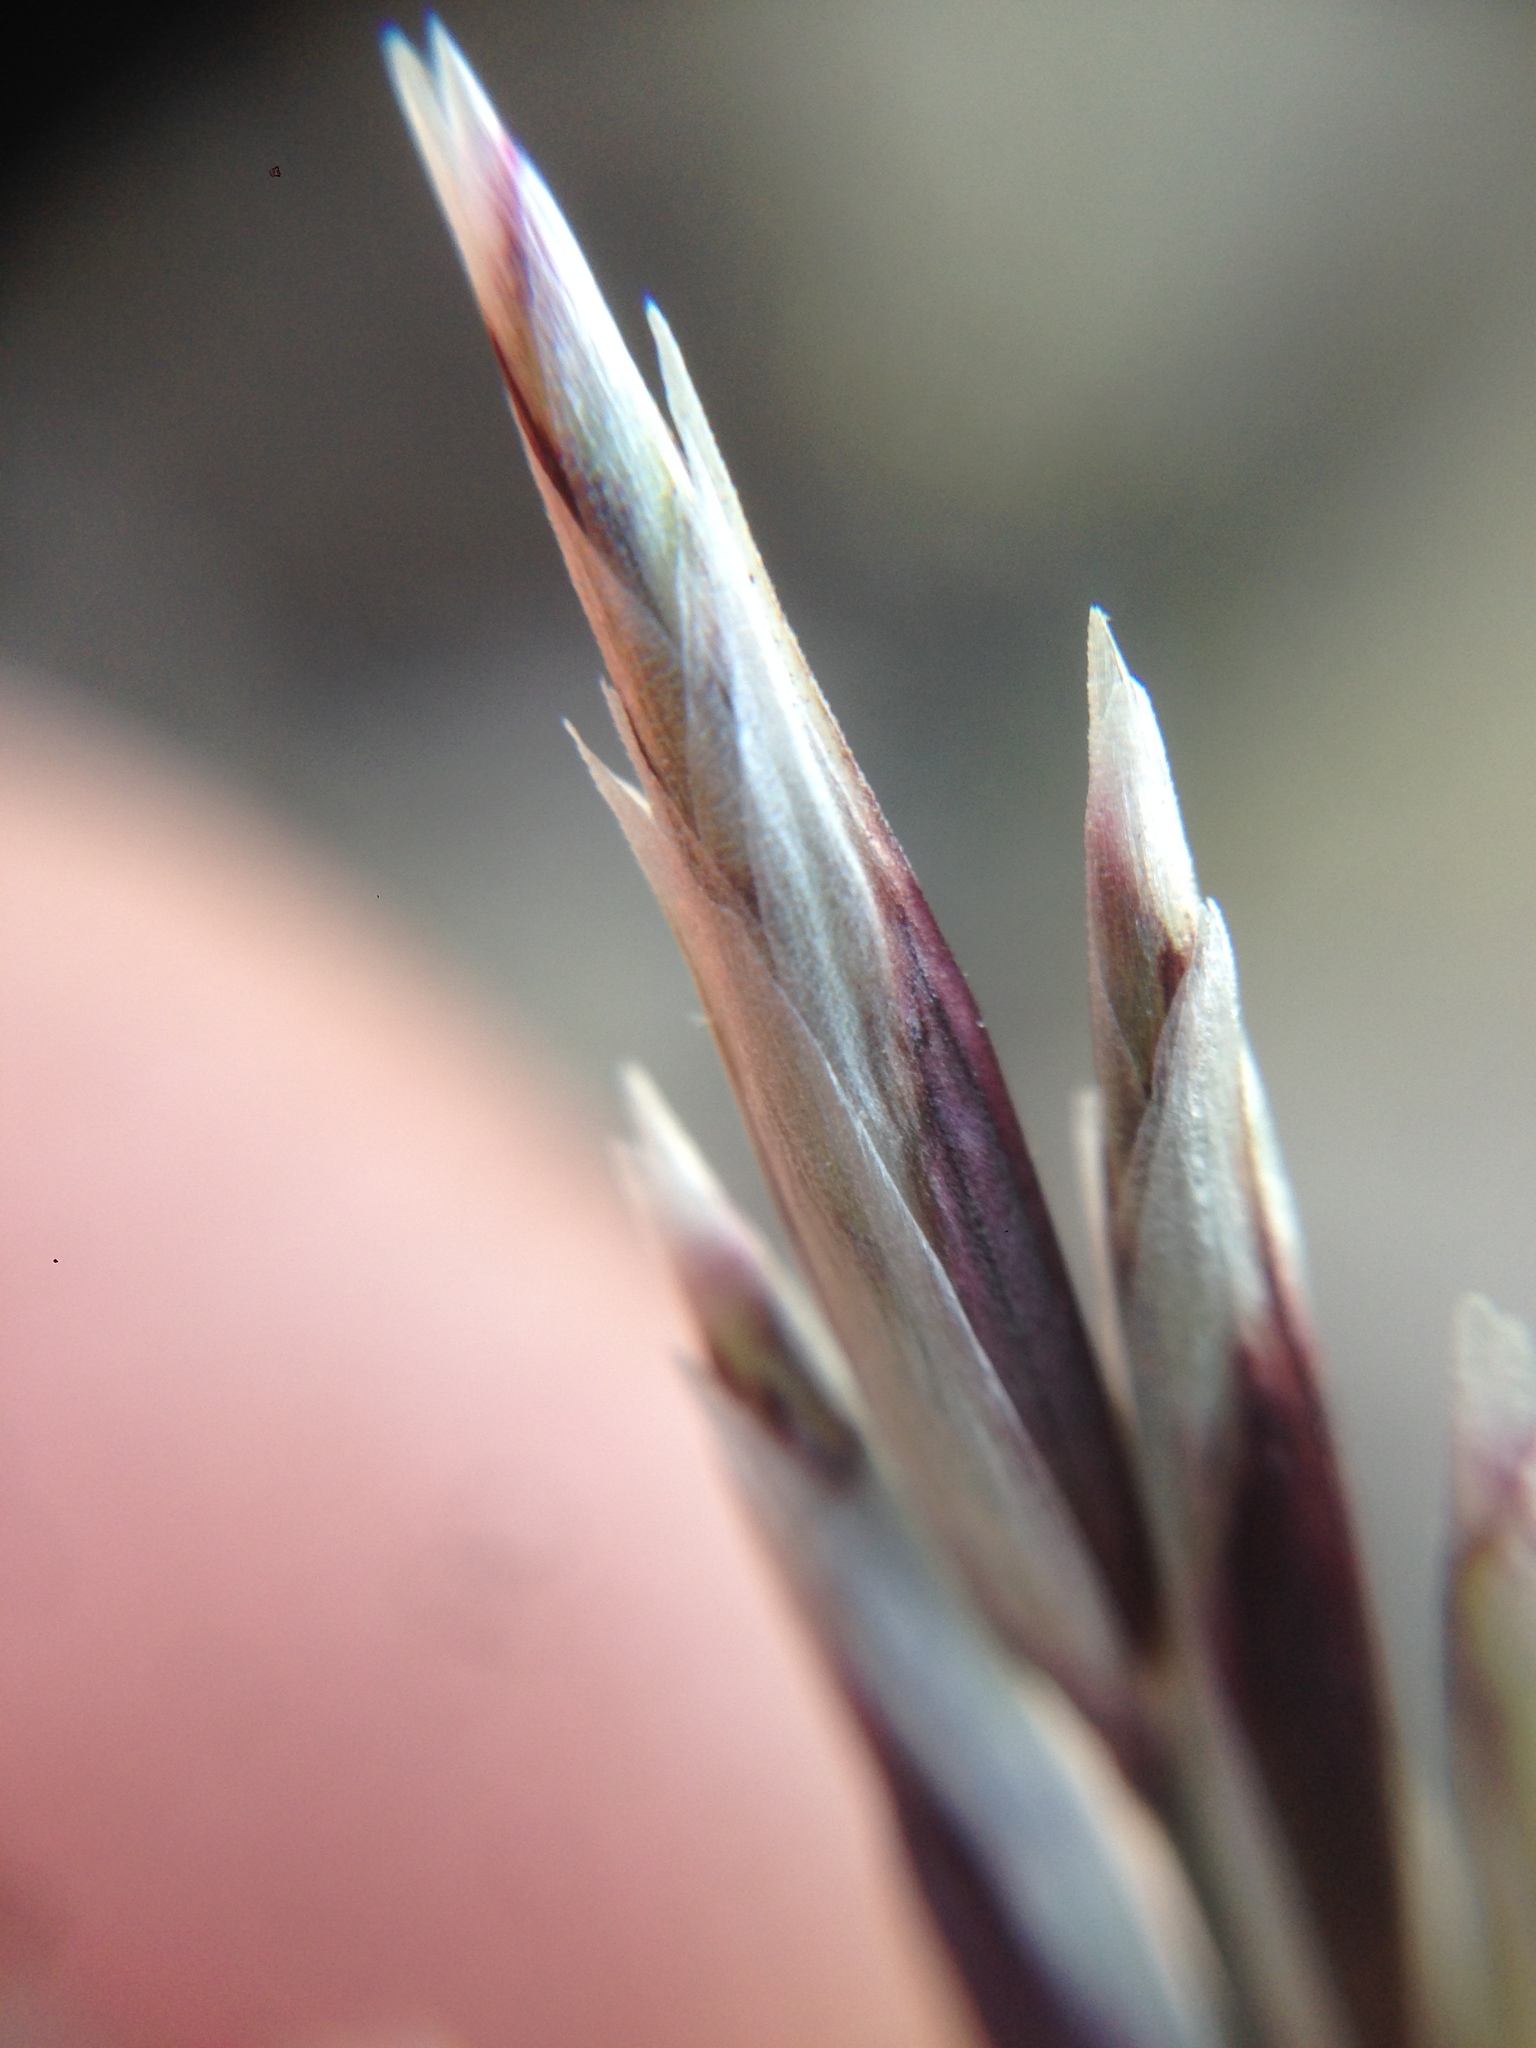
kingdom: Plantae
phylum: Tracheophyta
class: Liliopsida
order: Poales
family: Poaceae
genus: Melica
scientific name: Melica frutescens
